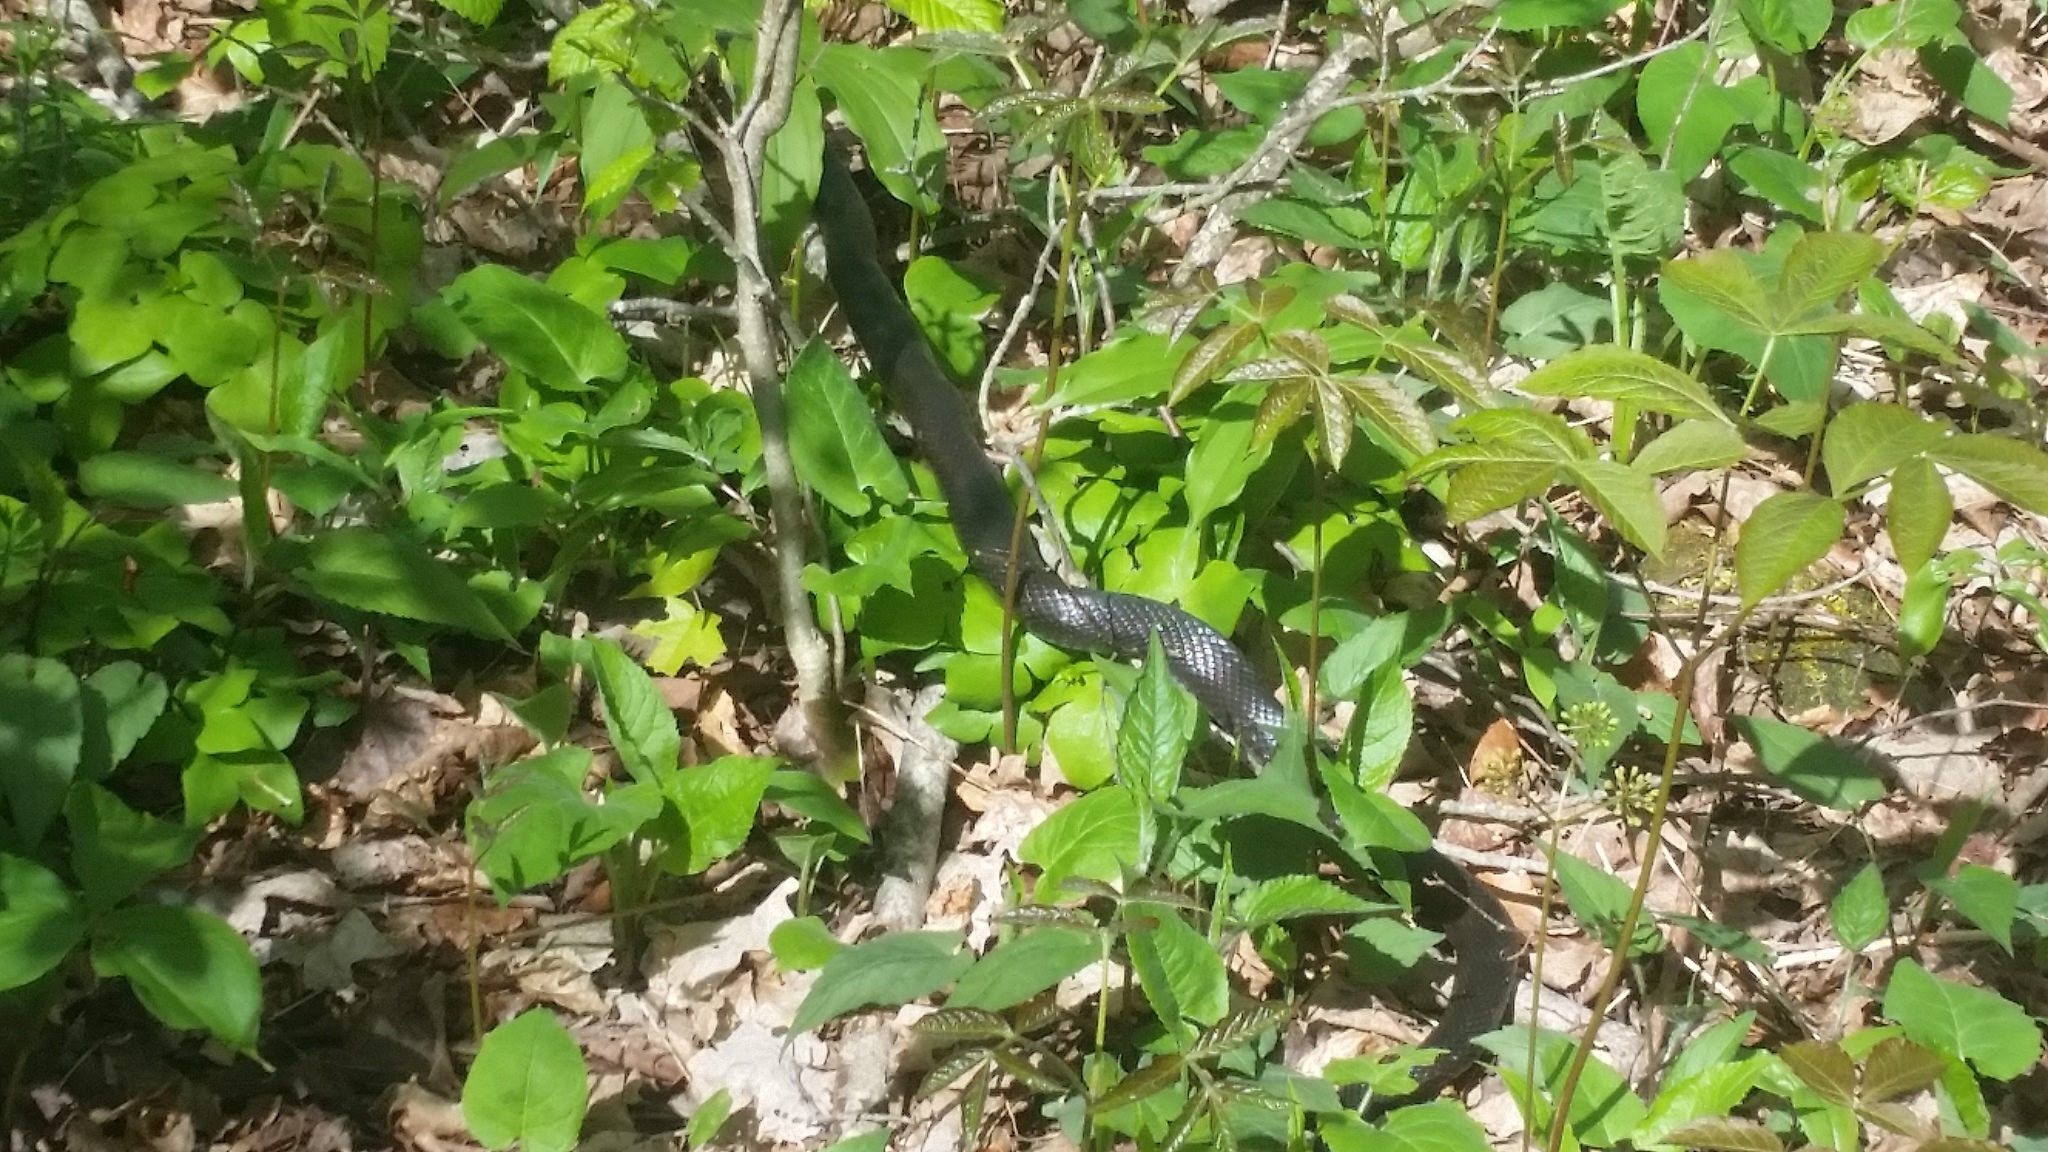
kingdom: Animalia
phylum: Chordata
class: Squamata
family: Colubridae
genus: Pantherophis
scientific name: Pantherophis alleghaniensis
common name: Eastern rat snake
